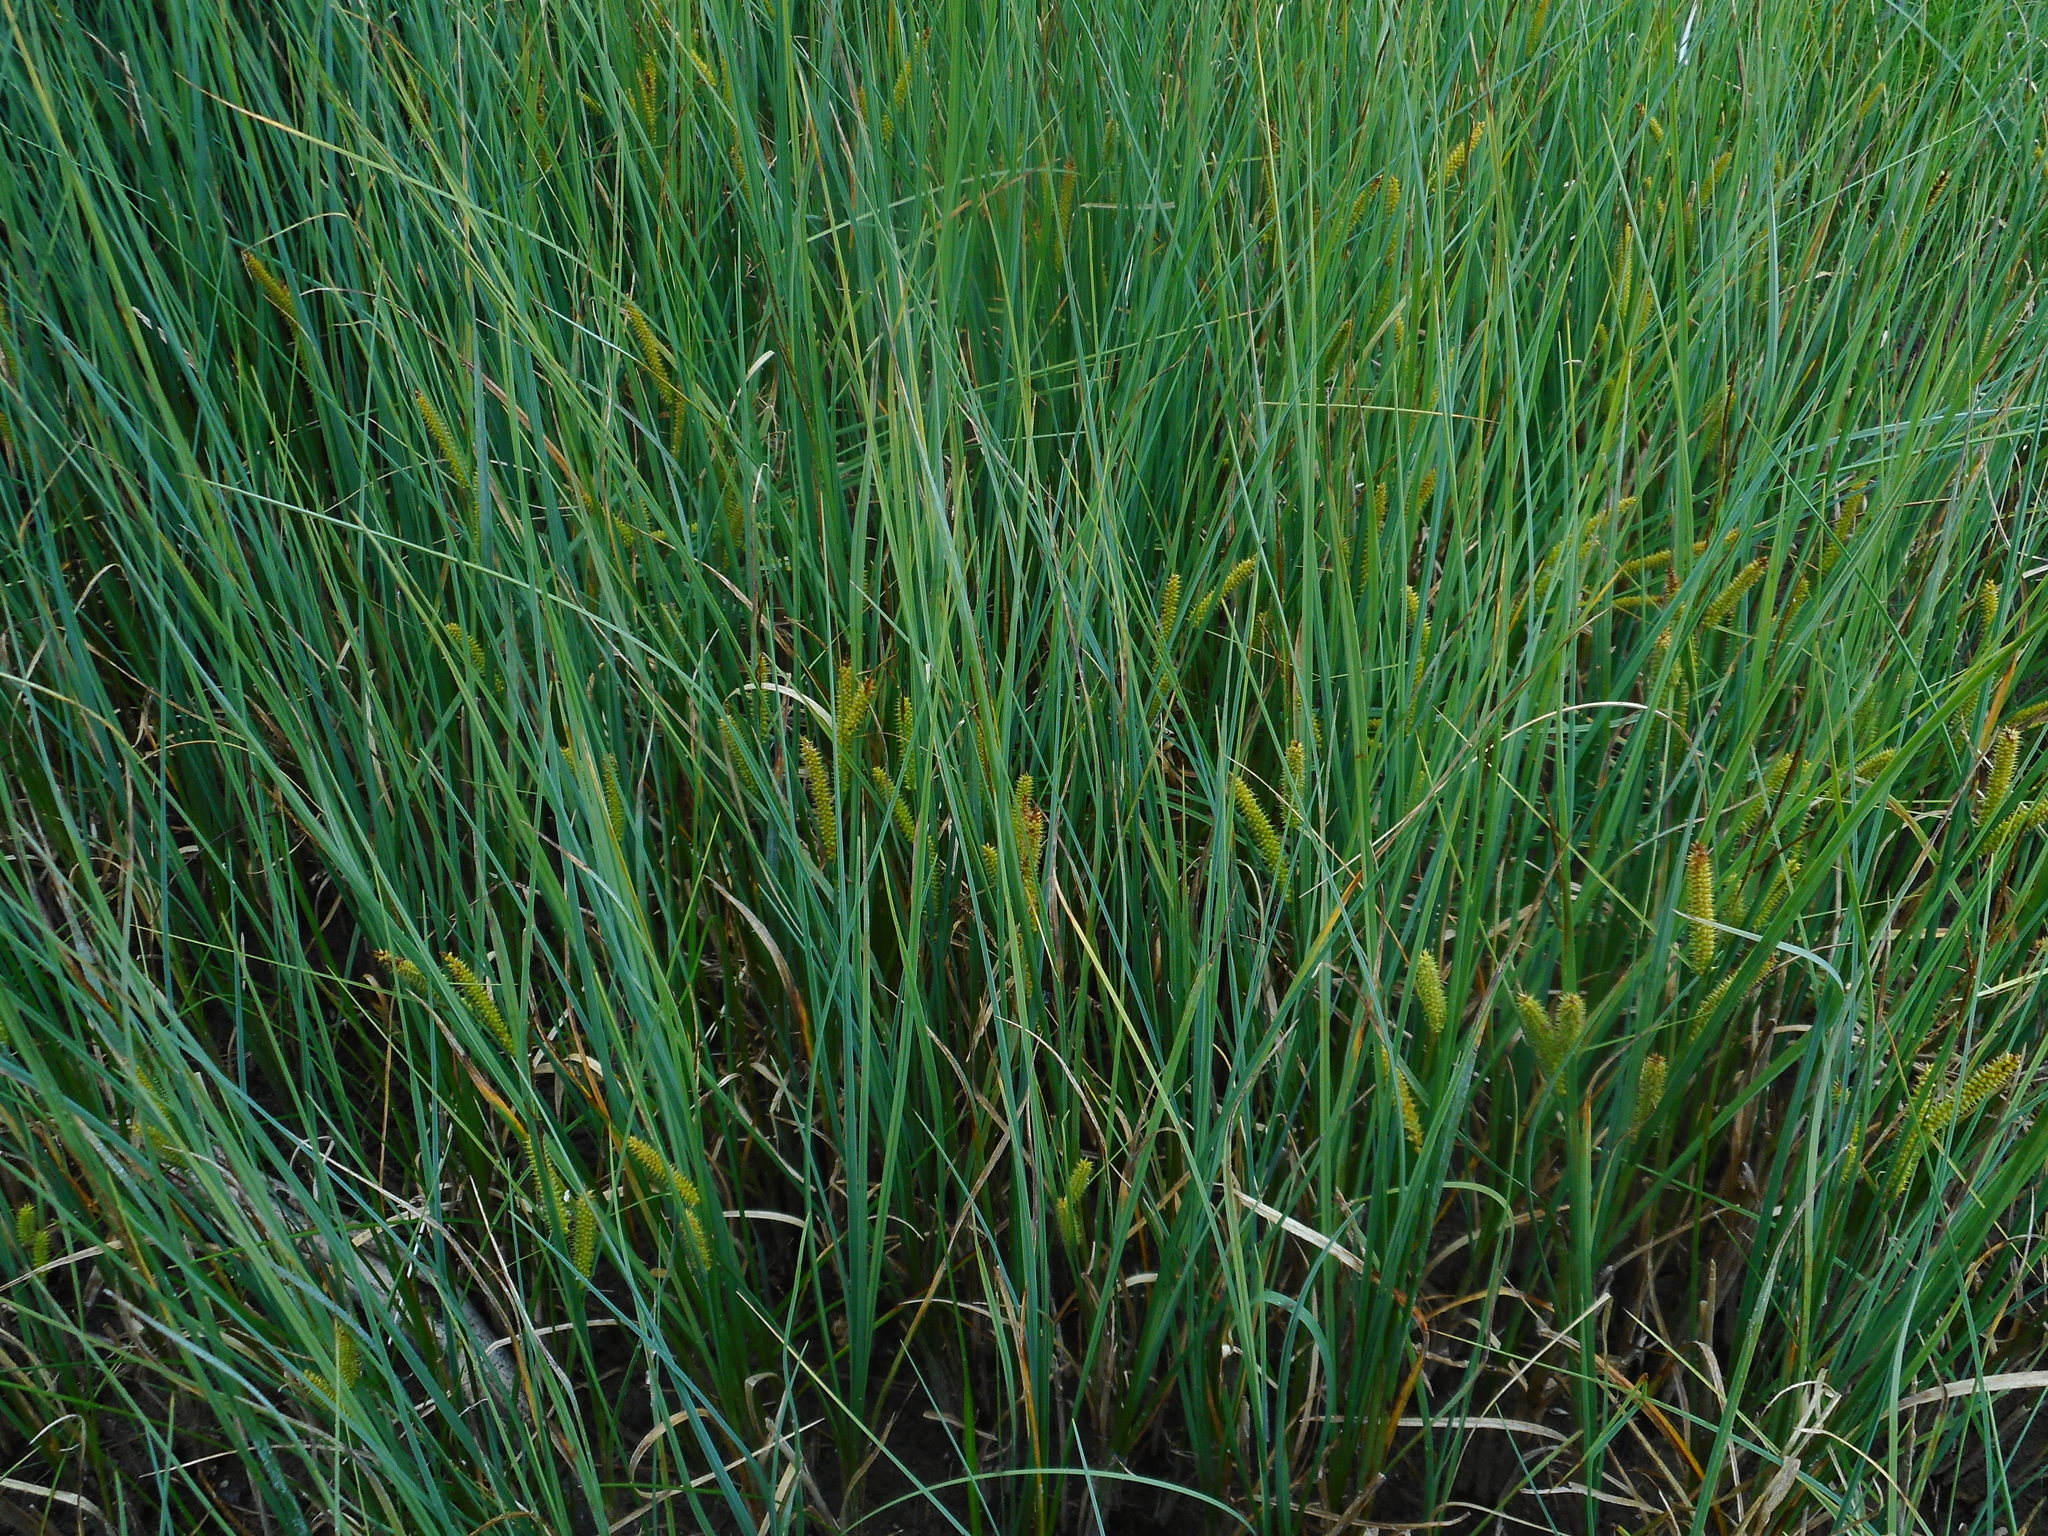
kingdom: Plantae
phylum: Tracheophyta
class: Liliopsida
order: Poales
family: Cyperaceae
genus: Carex
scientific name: Carex rostrata
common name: Bottle sedge
